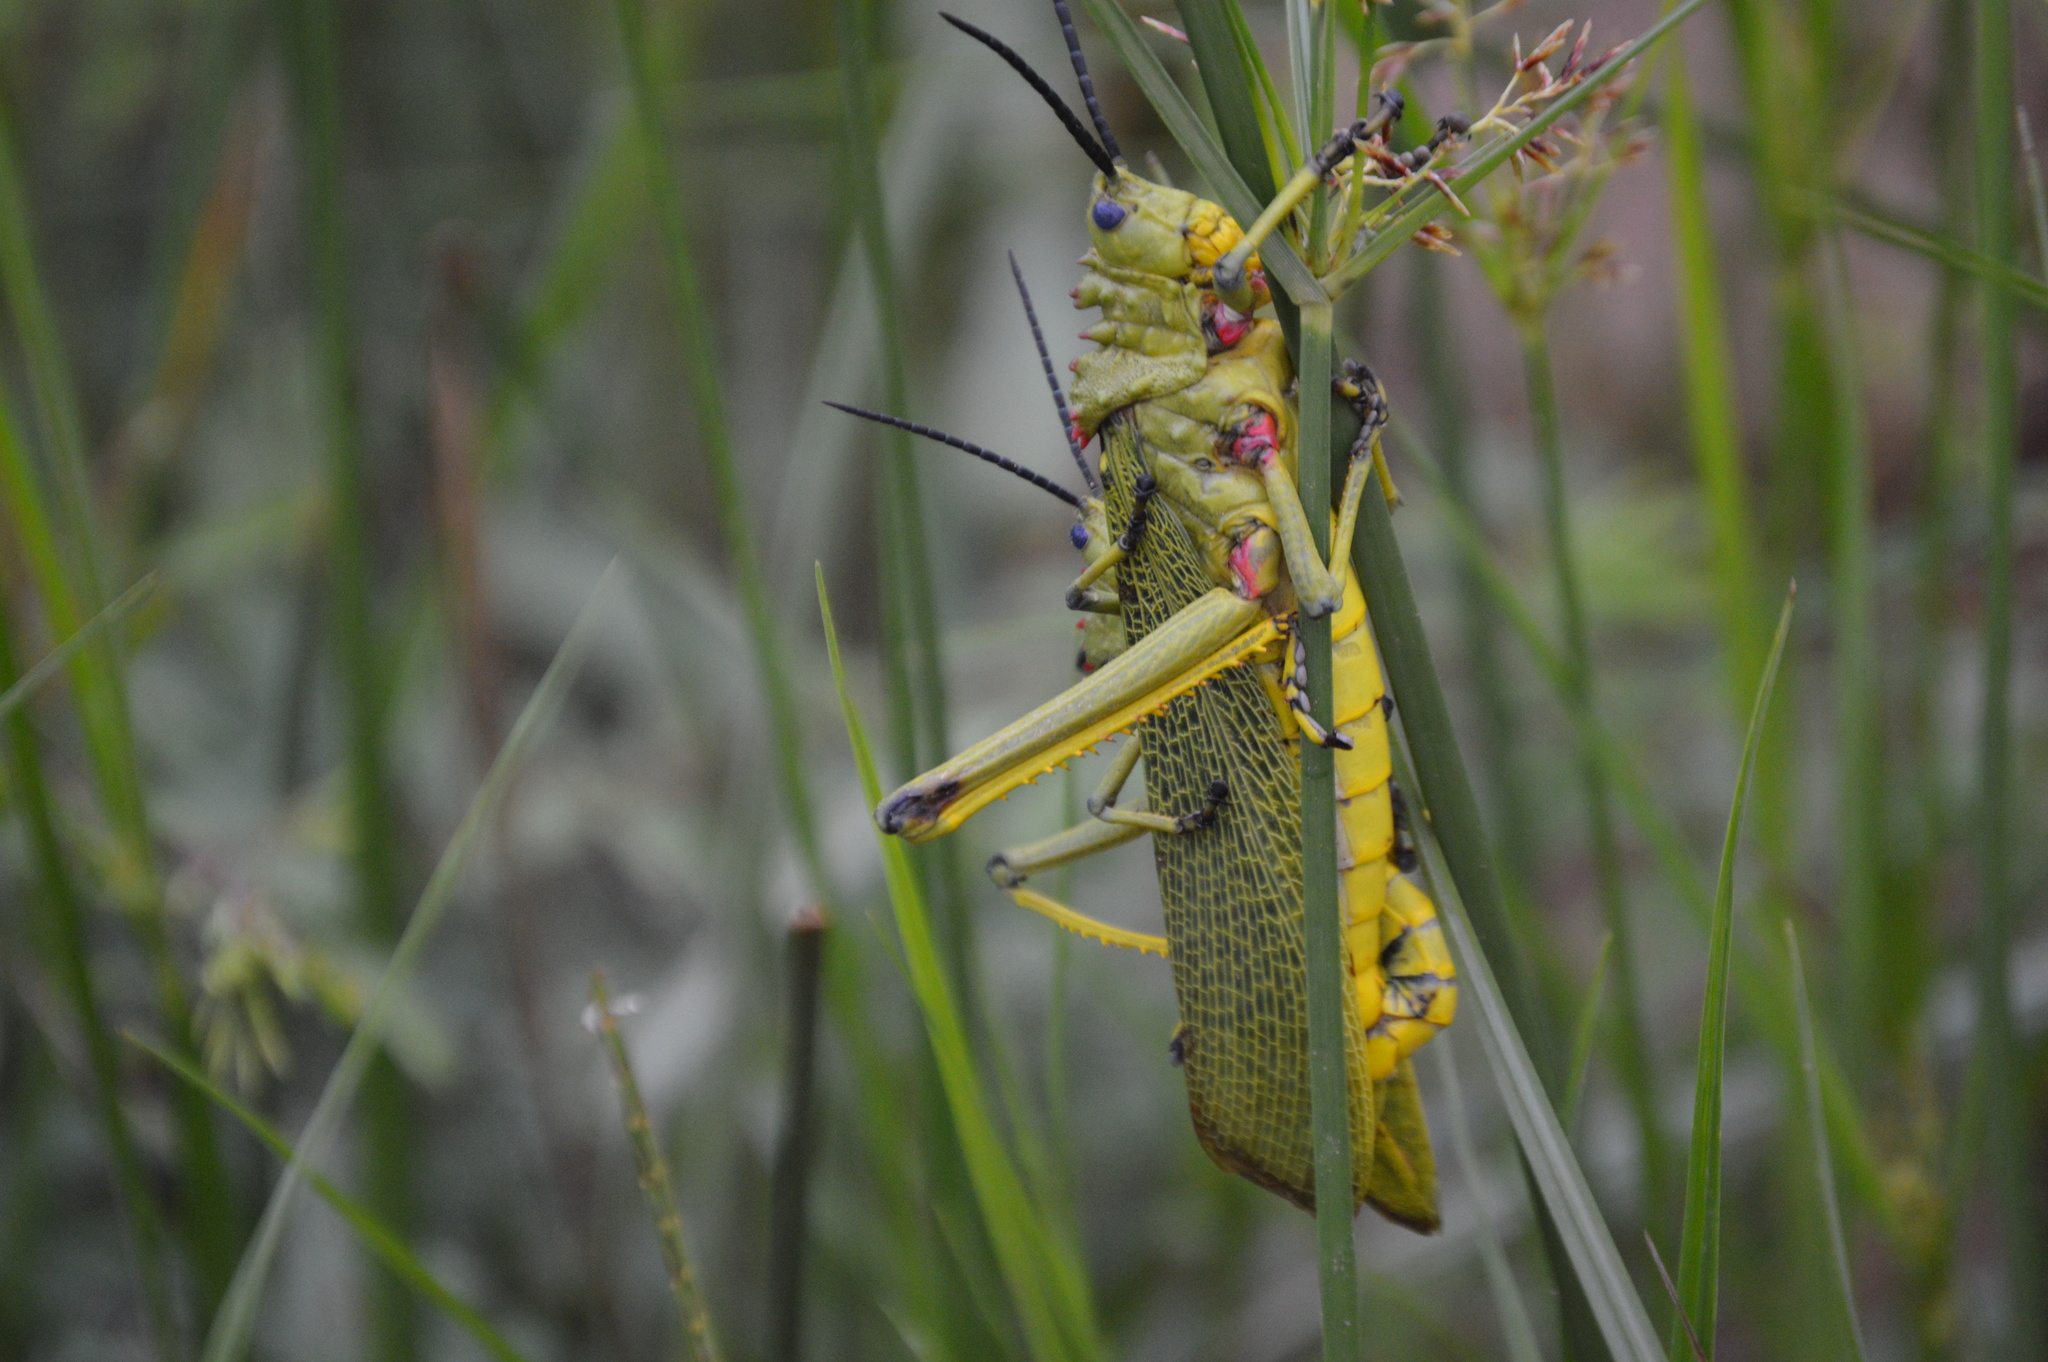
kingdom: Animalia
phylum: Arthropoda
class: Insecta
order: Orthoptera
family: Pyrgomorphidae
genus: Phymateus
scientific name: Phymateus viridipes
